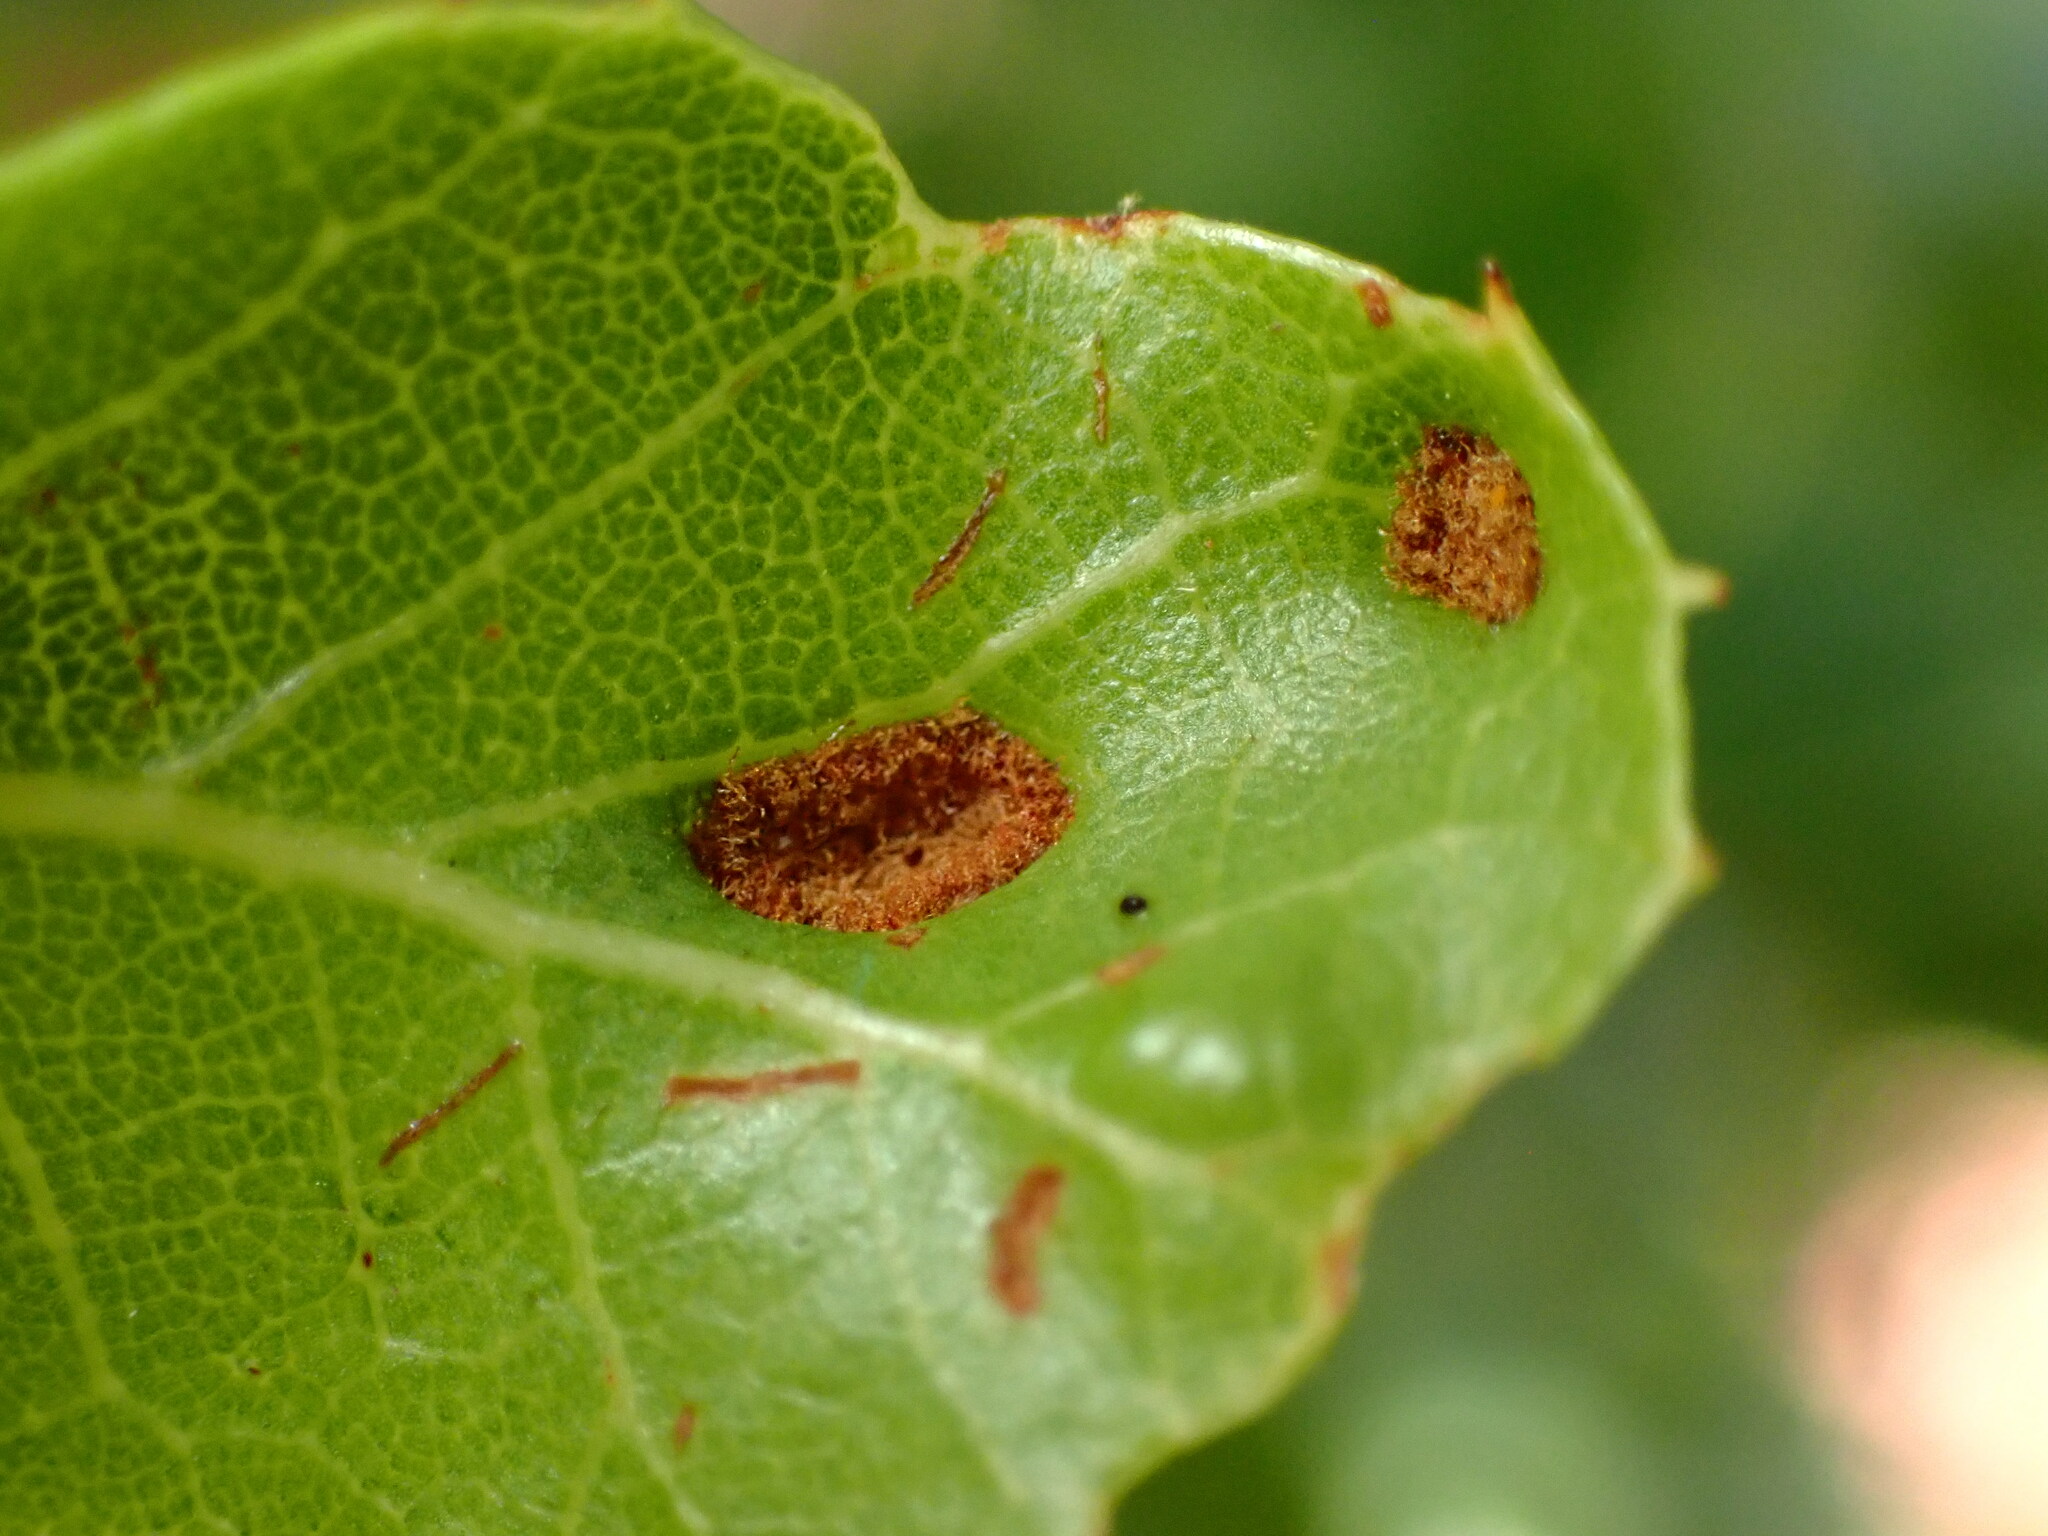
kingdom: Animalia
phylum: Arthropoda
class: Arachnida
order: Trombidiformes
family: Eriophyidae
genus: Aceria
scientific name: Aceria
